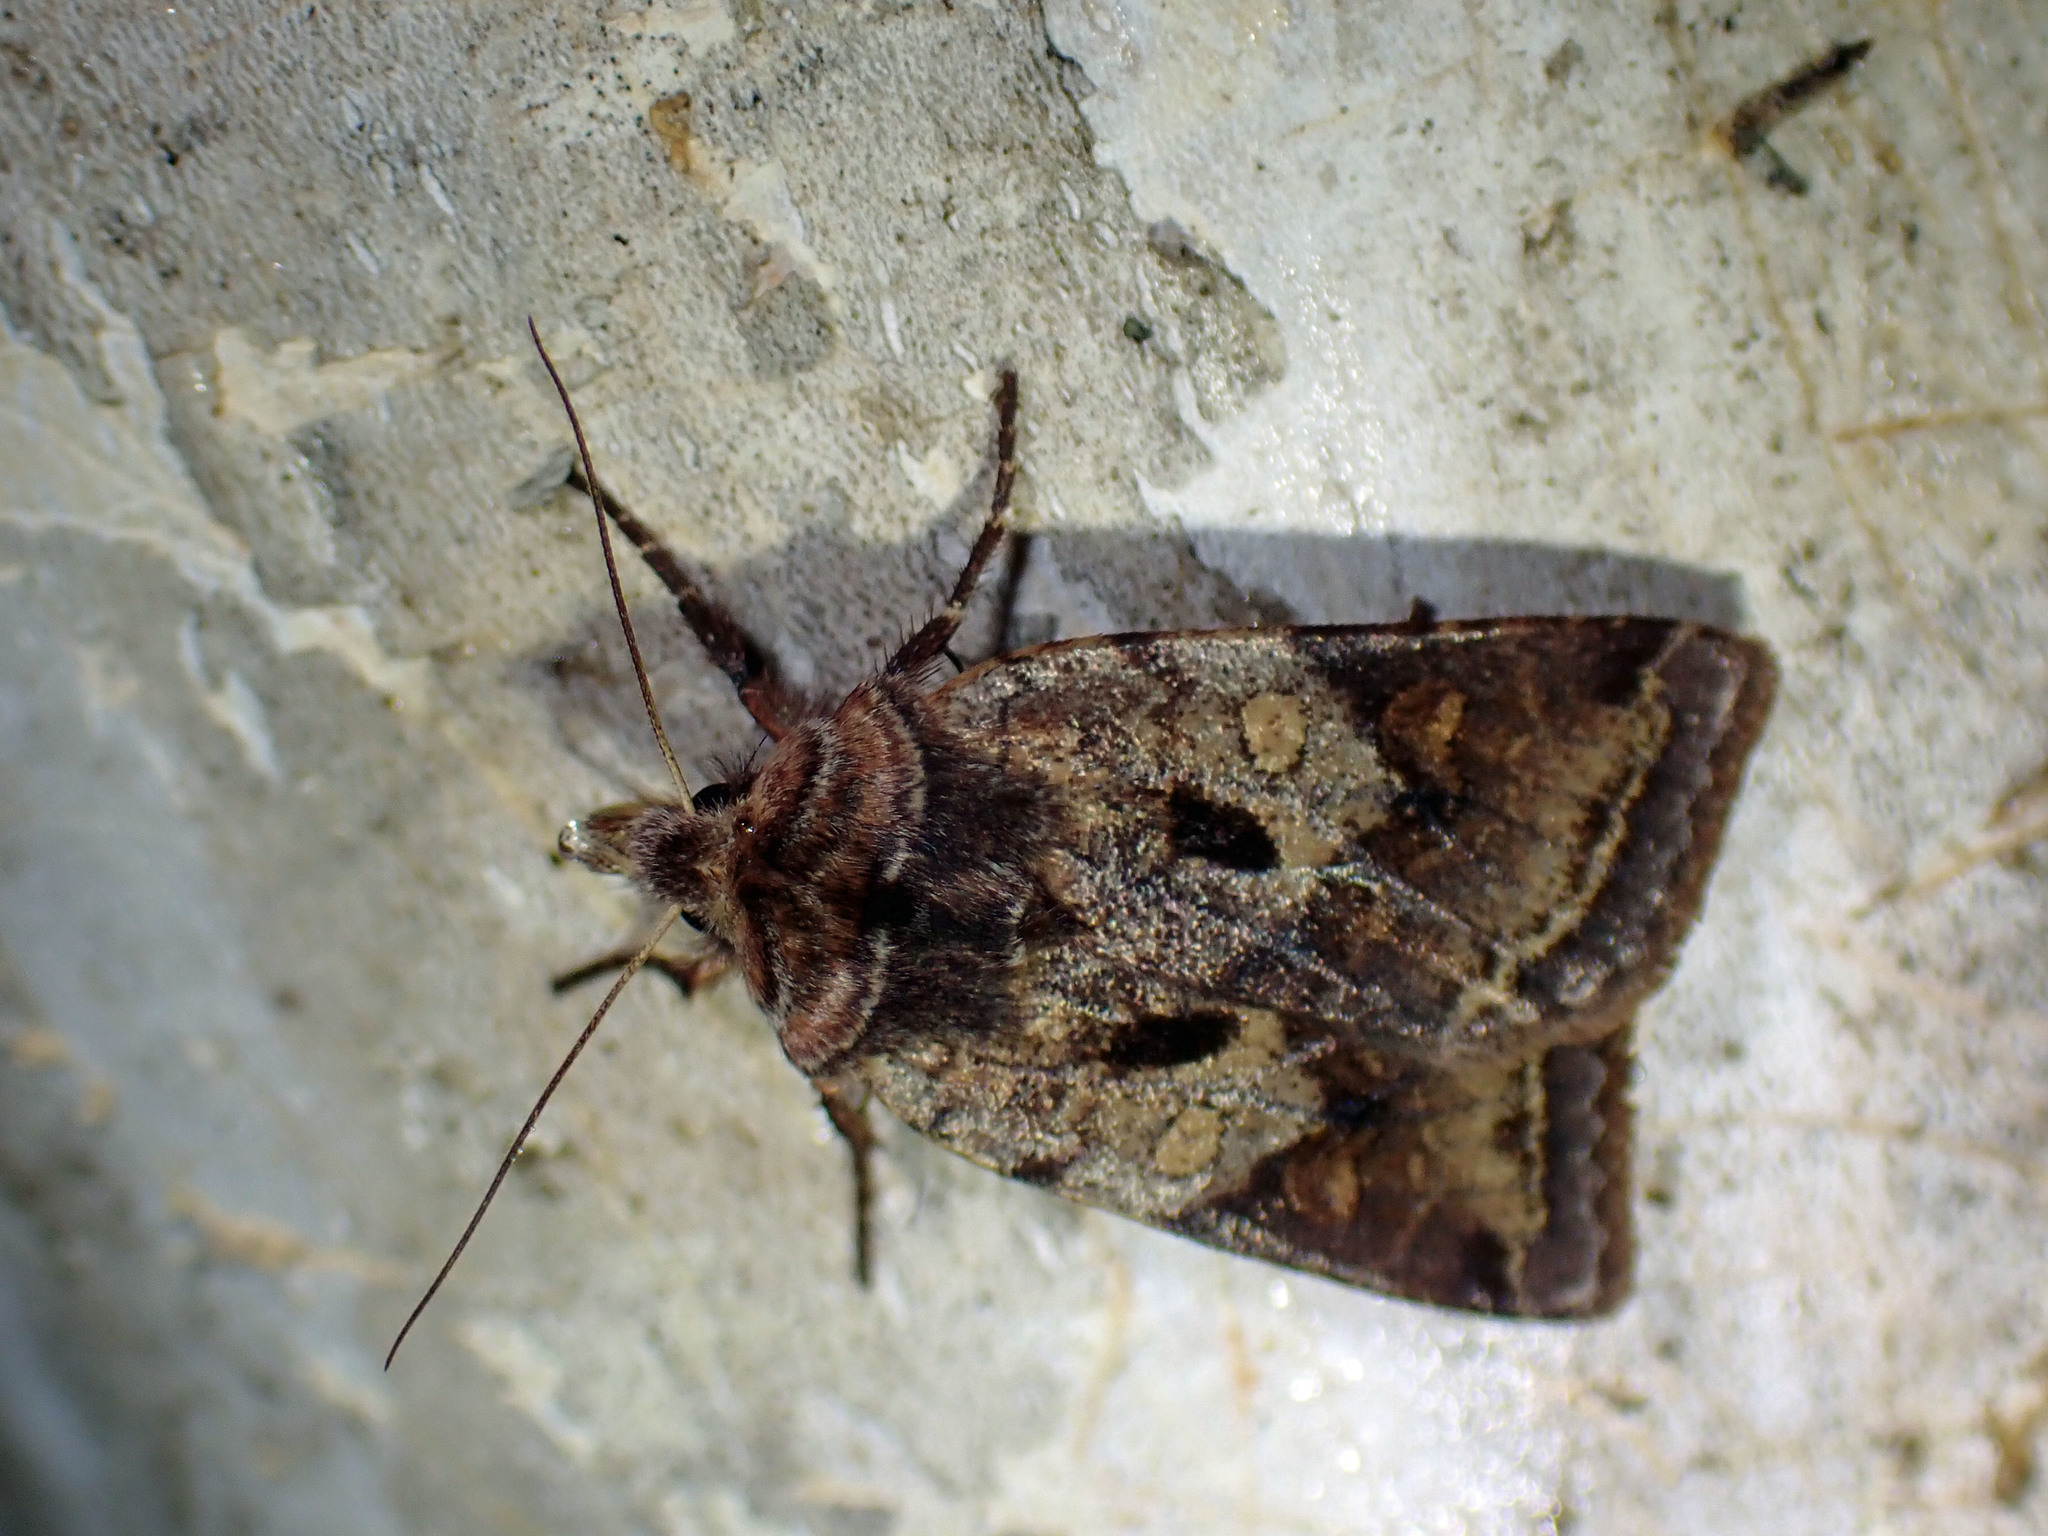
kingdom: Animalia
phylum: Arthropoda
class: Insecta
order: Lepidoptera
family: Noctuidae
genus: Cerastis
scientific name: Cerastis salicarum
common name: Willow dart
